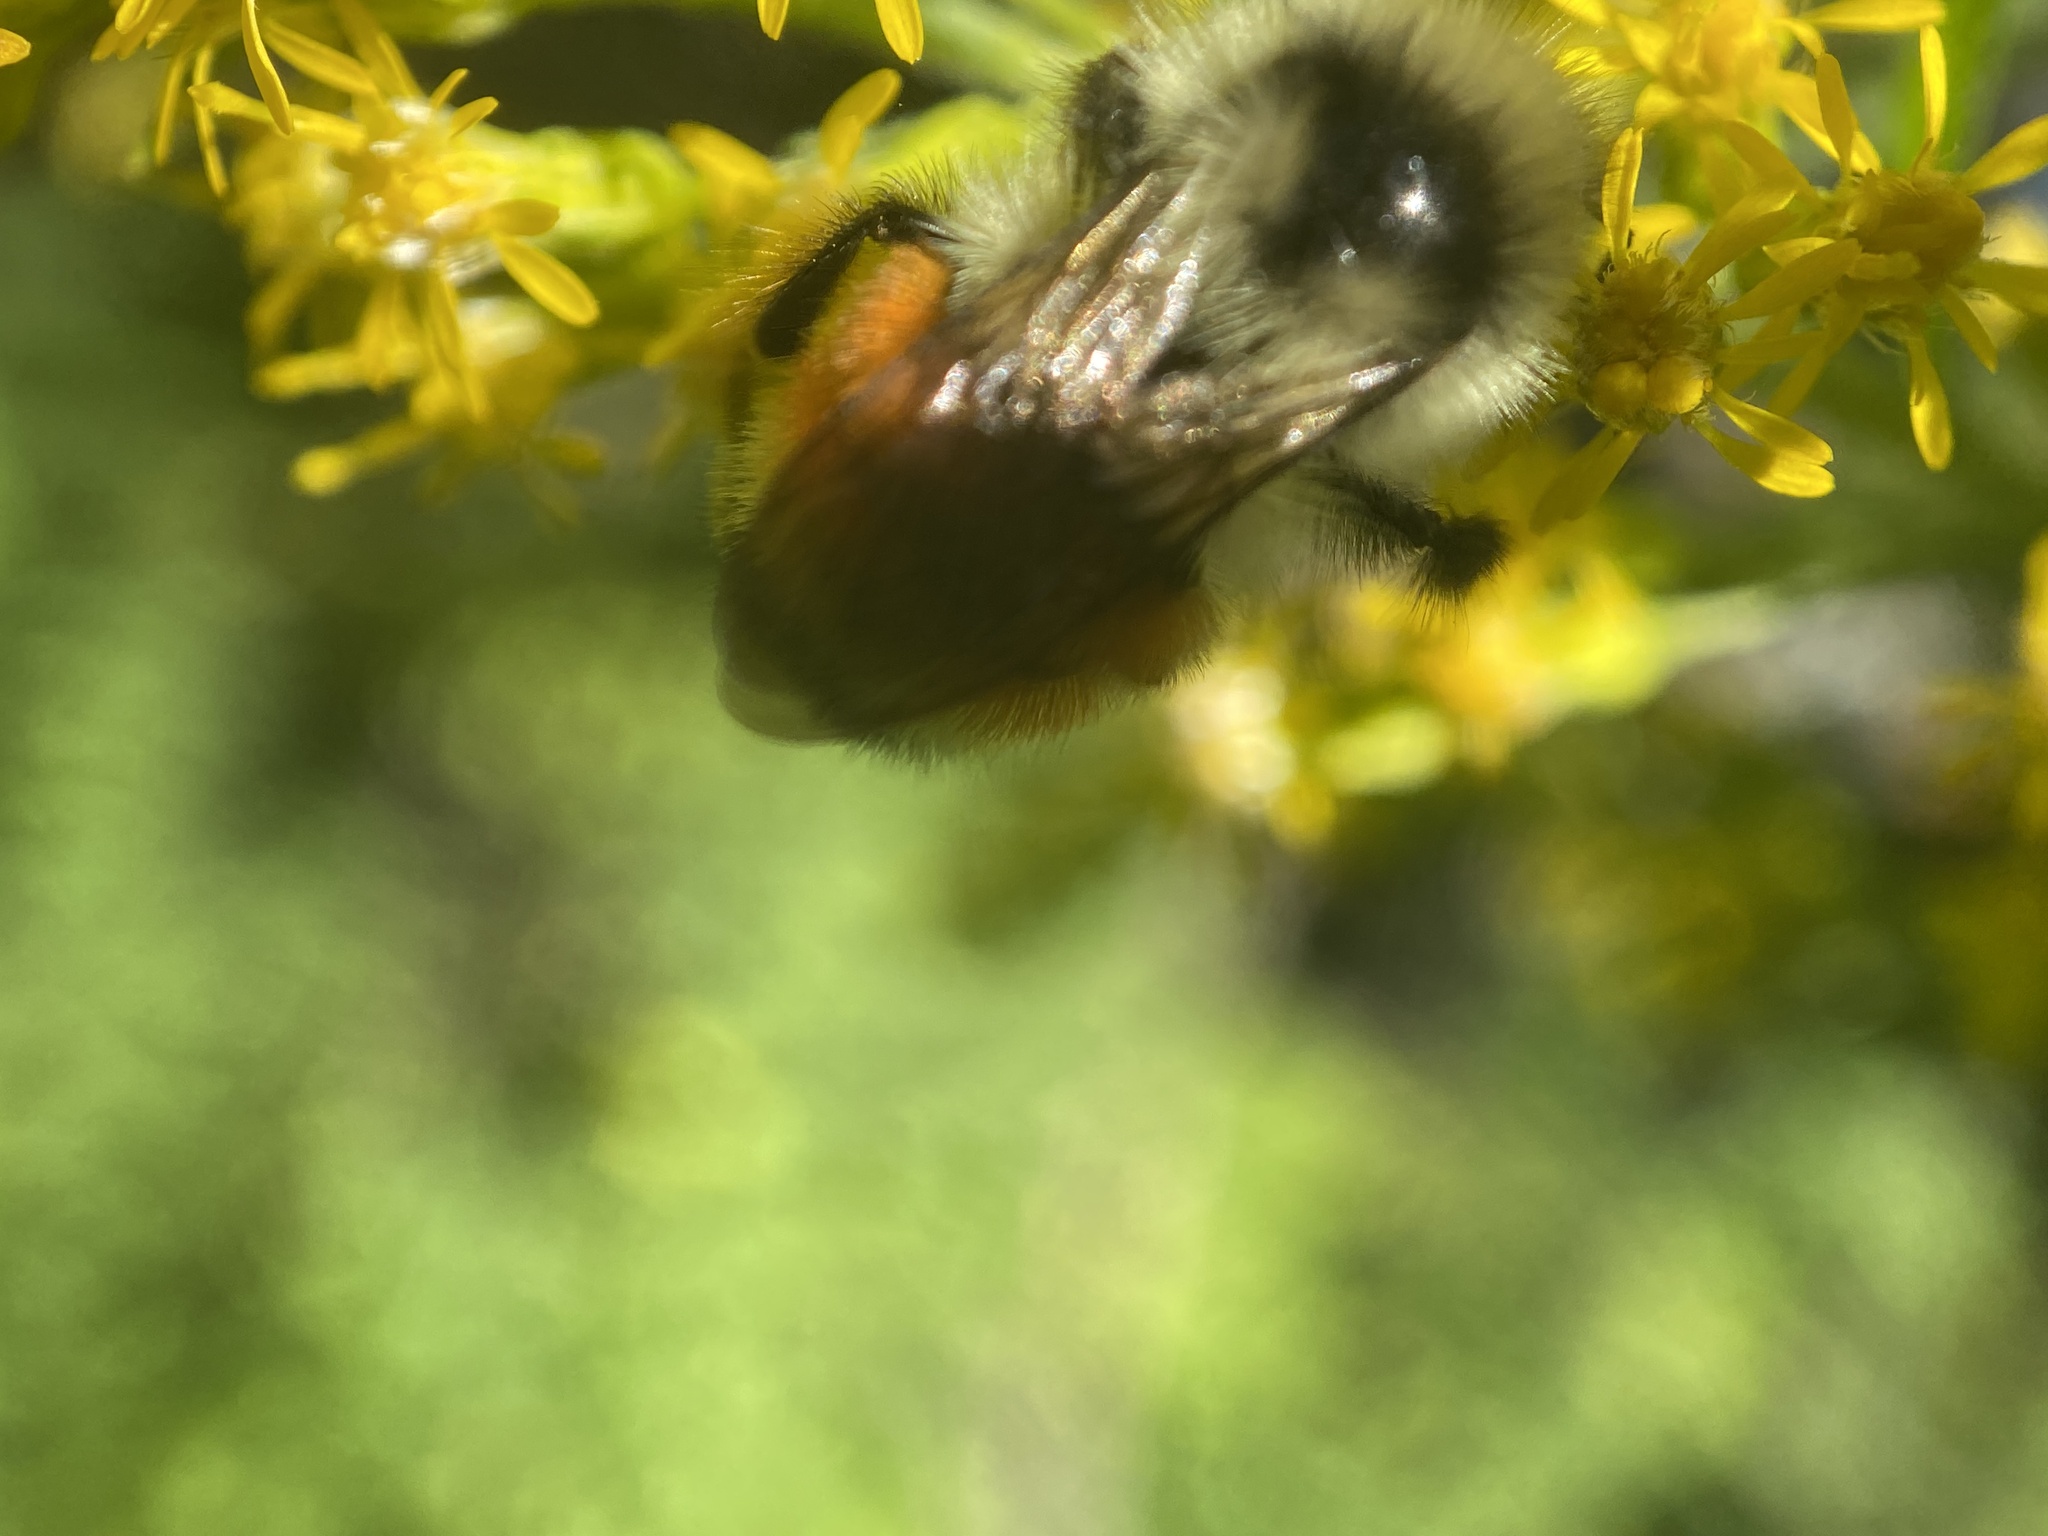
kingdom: Animalia
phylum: Arthropoda
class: Insecta
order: Hymenoptera
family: Apidae
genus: Bombus
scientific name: Bombus ternarius
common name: Tri-colored bumble bee
